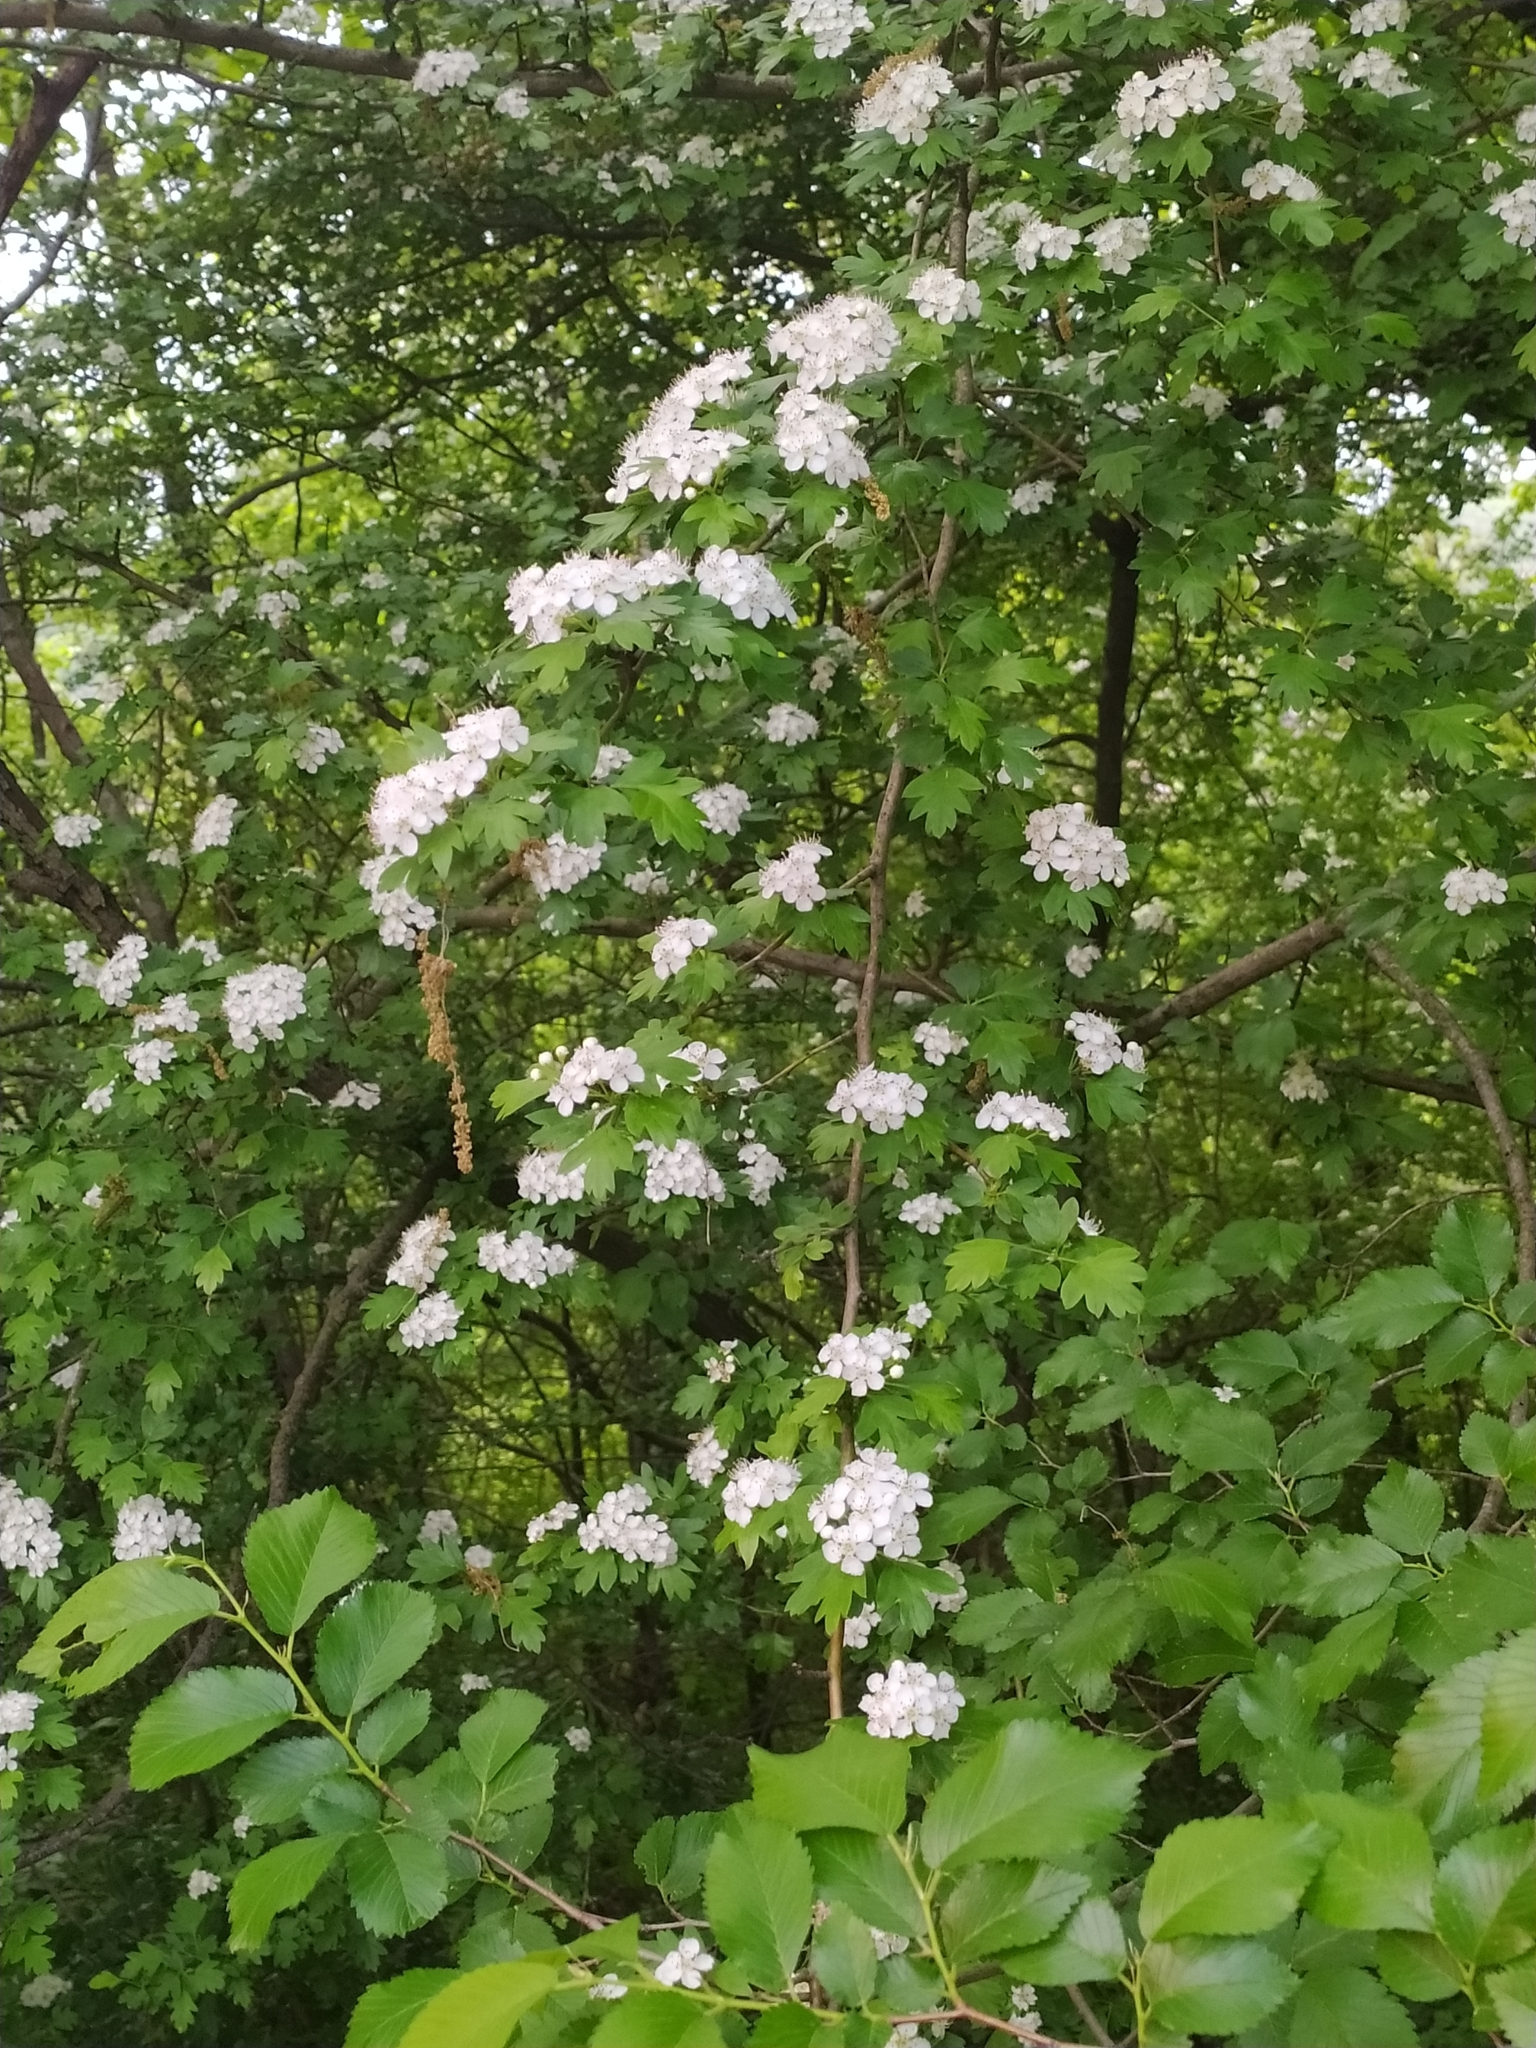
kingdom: Plantae
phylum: Tracheophyta
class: Magnoliopsida
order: Rosales
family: Rosaceae
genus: Crataegus
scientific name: Crataegus monogyna
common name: Hawthorn
